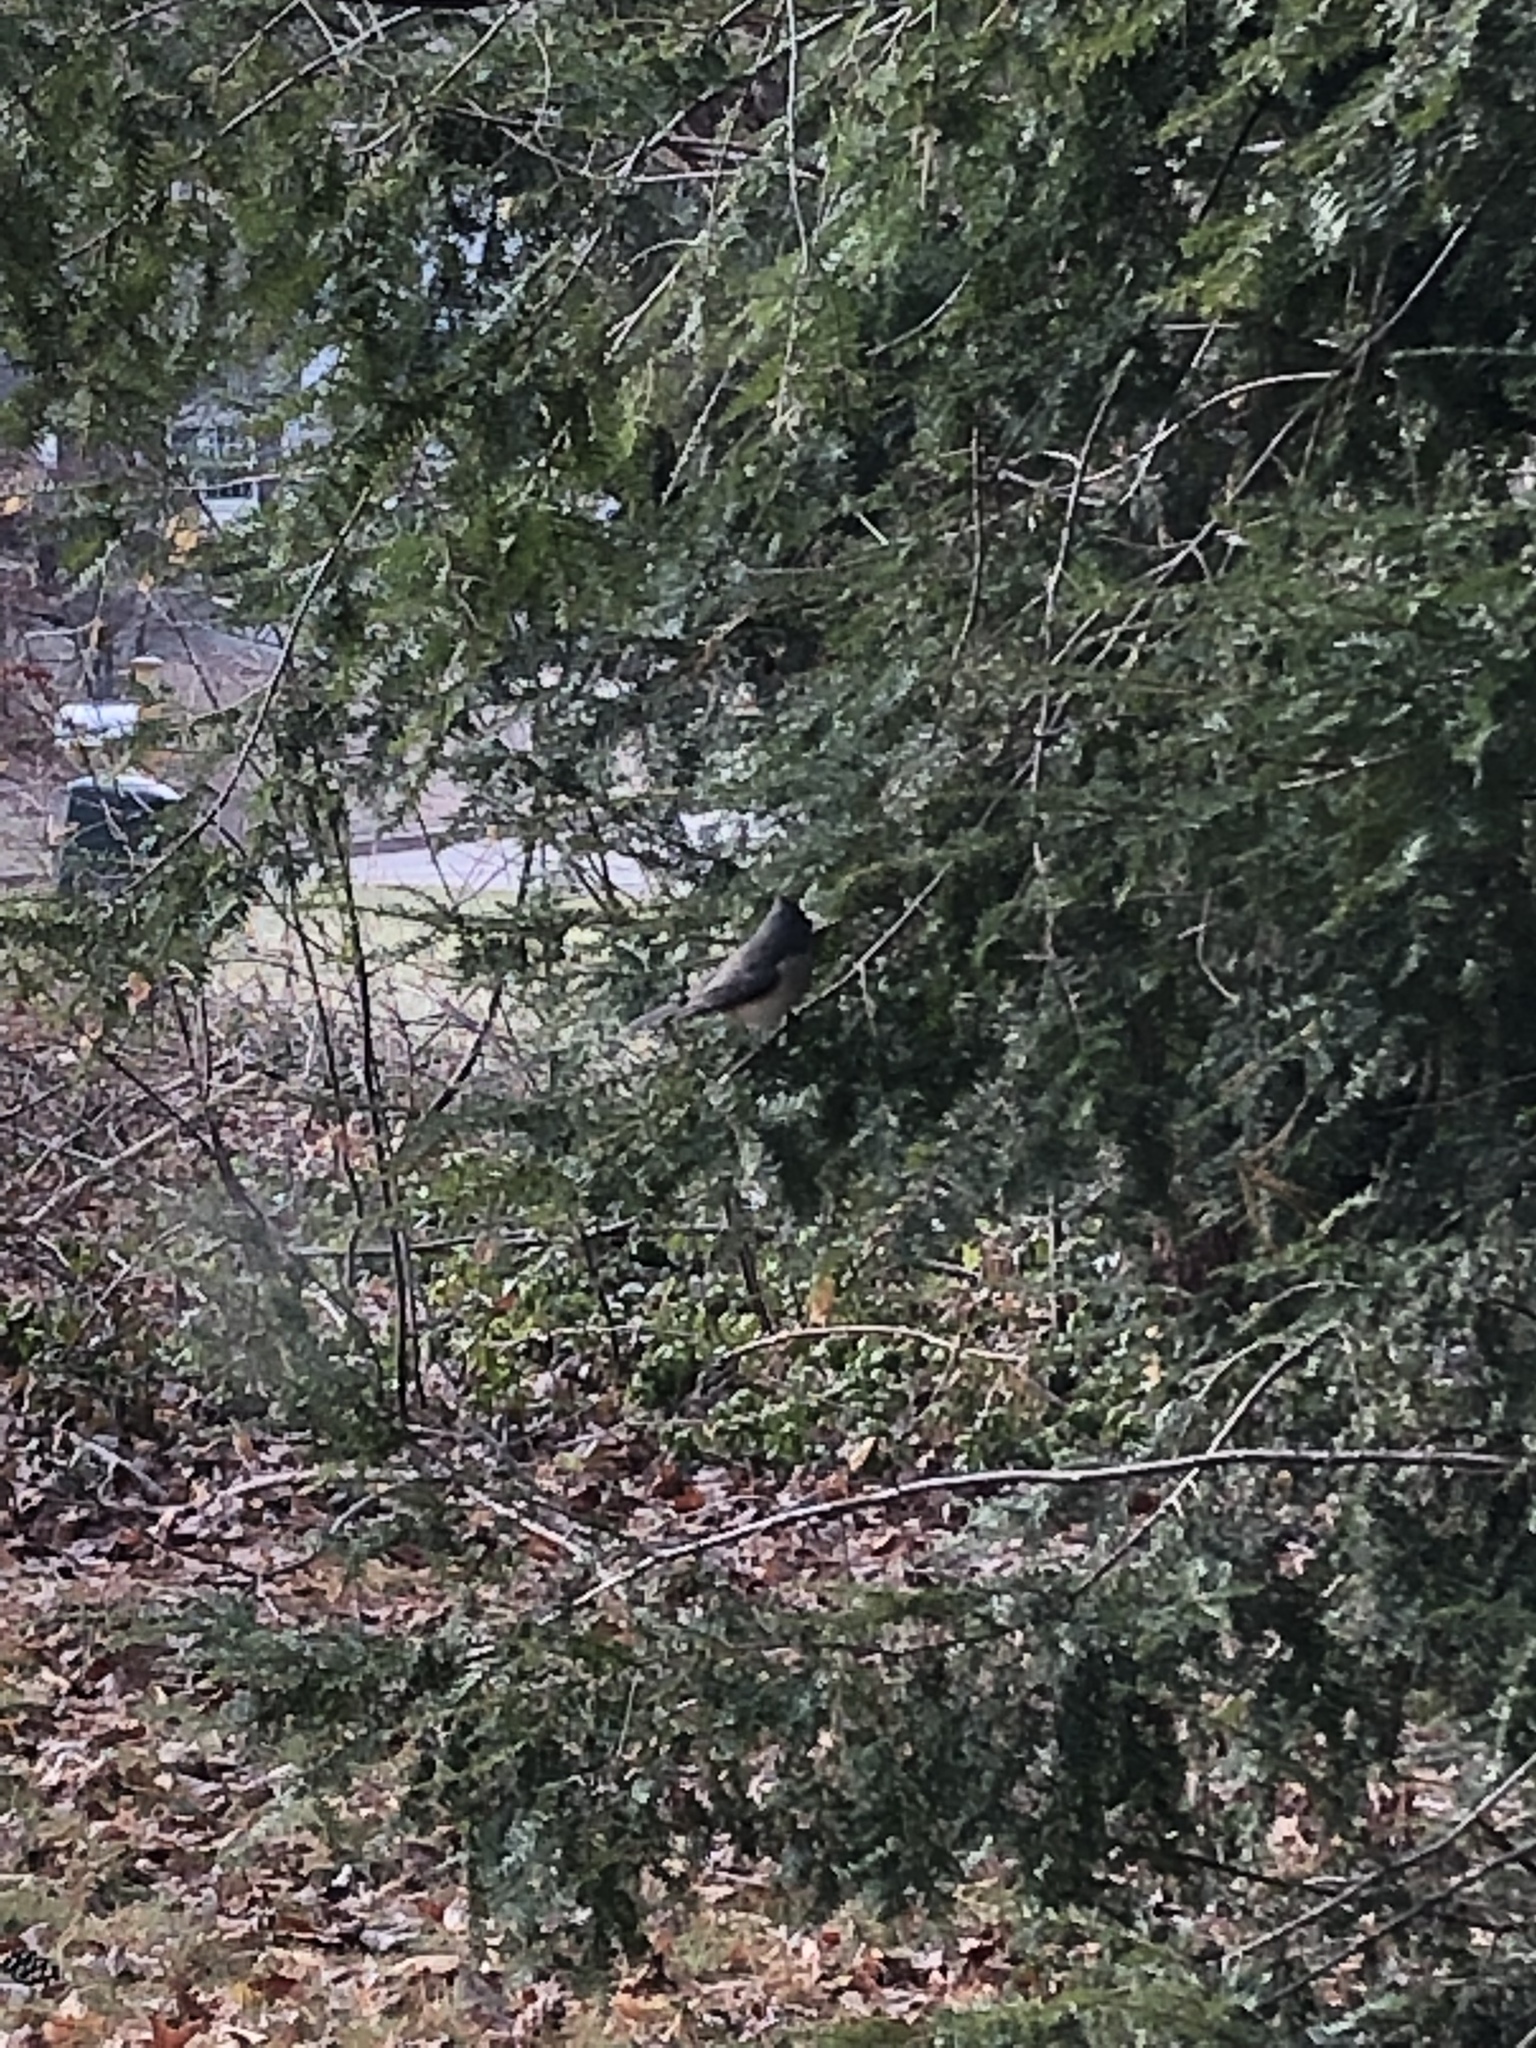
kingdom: Animalia
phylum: Chordata
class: Aves
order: Passeriformes
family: Paridae
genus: Baeolophus
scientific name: Baeolophus bicolor
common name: Tufted titmouse
